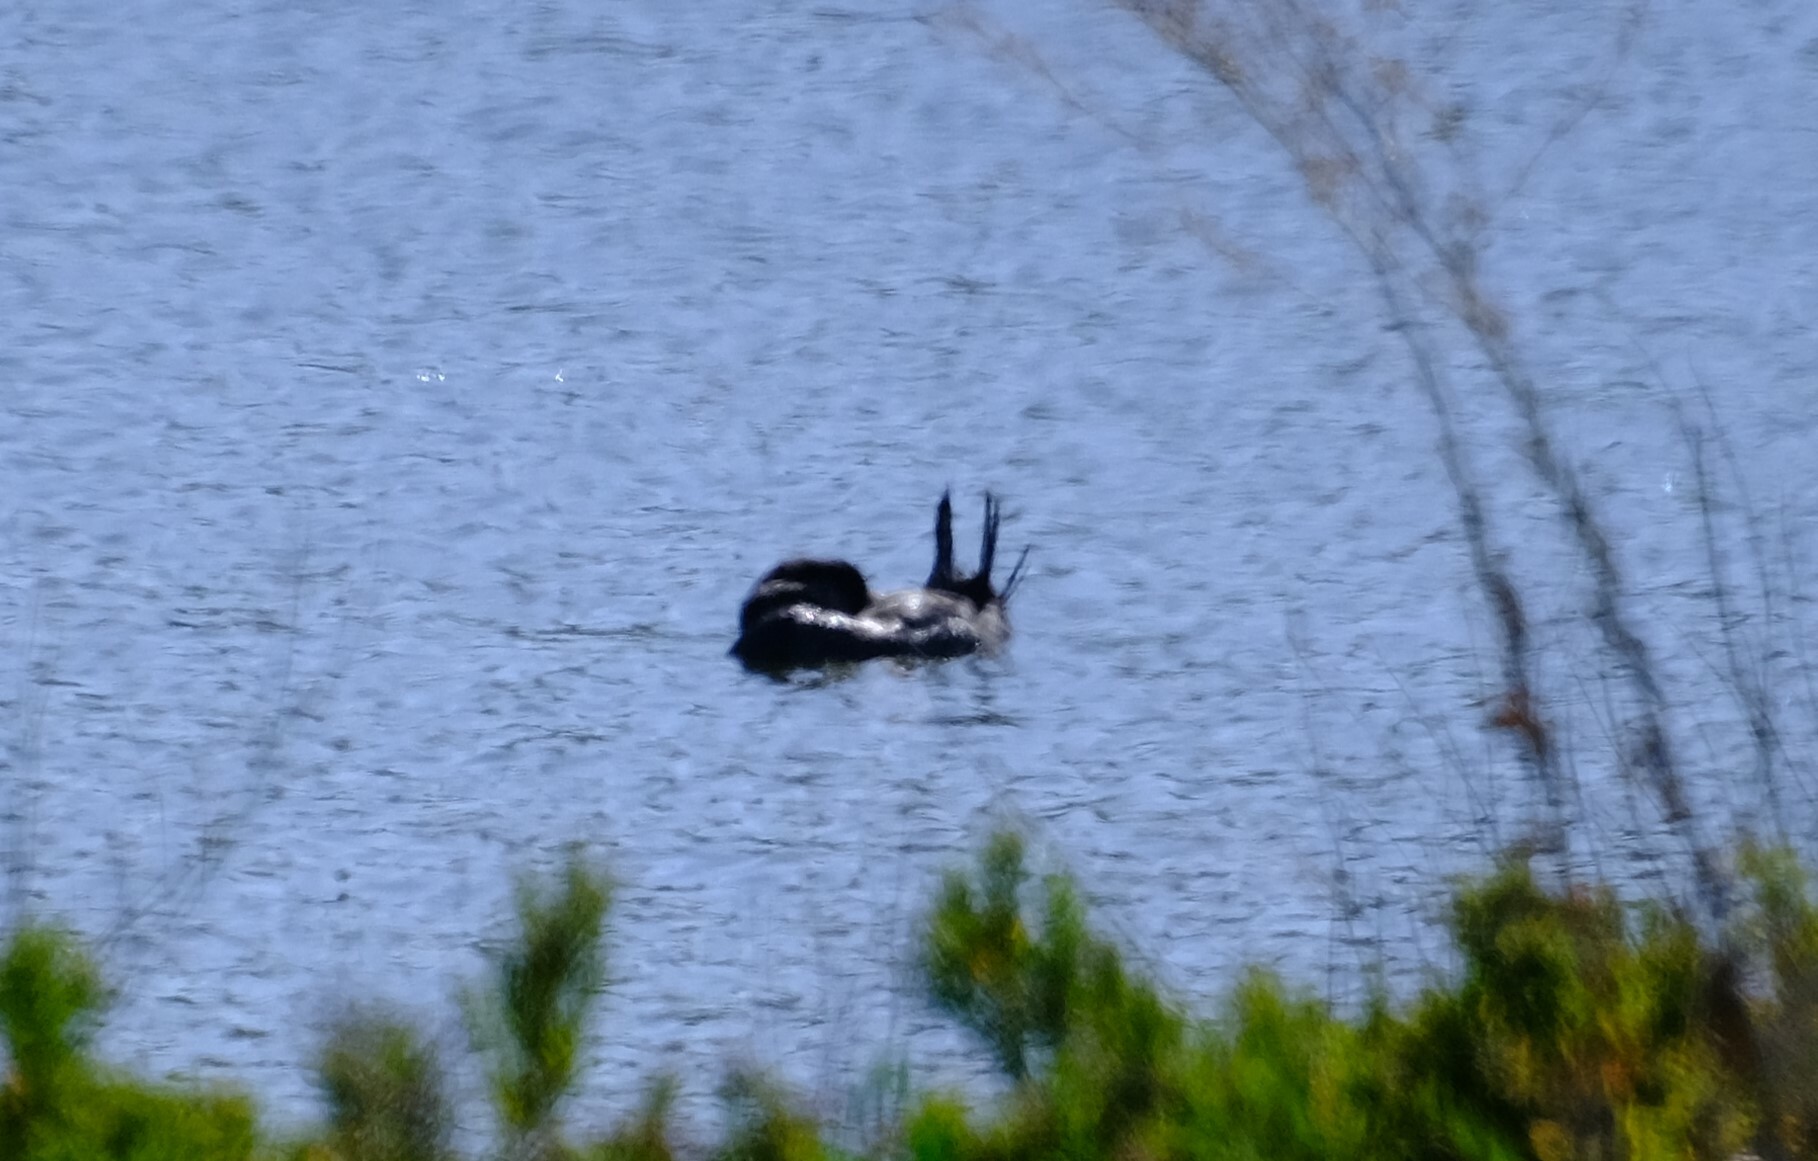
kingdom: Animalia
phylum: Chordata
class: Aves
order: Anseriformes
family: Anatidae
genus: Biziura
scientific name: Biziura lobata
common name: Musk duck
